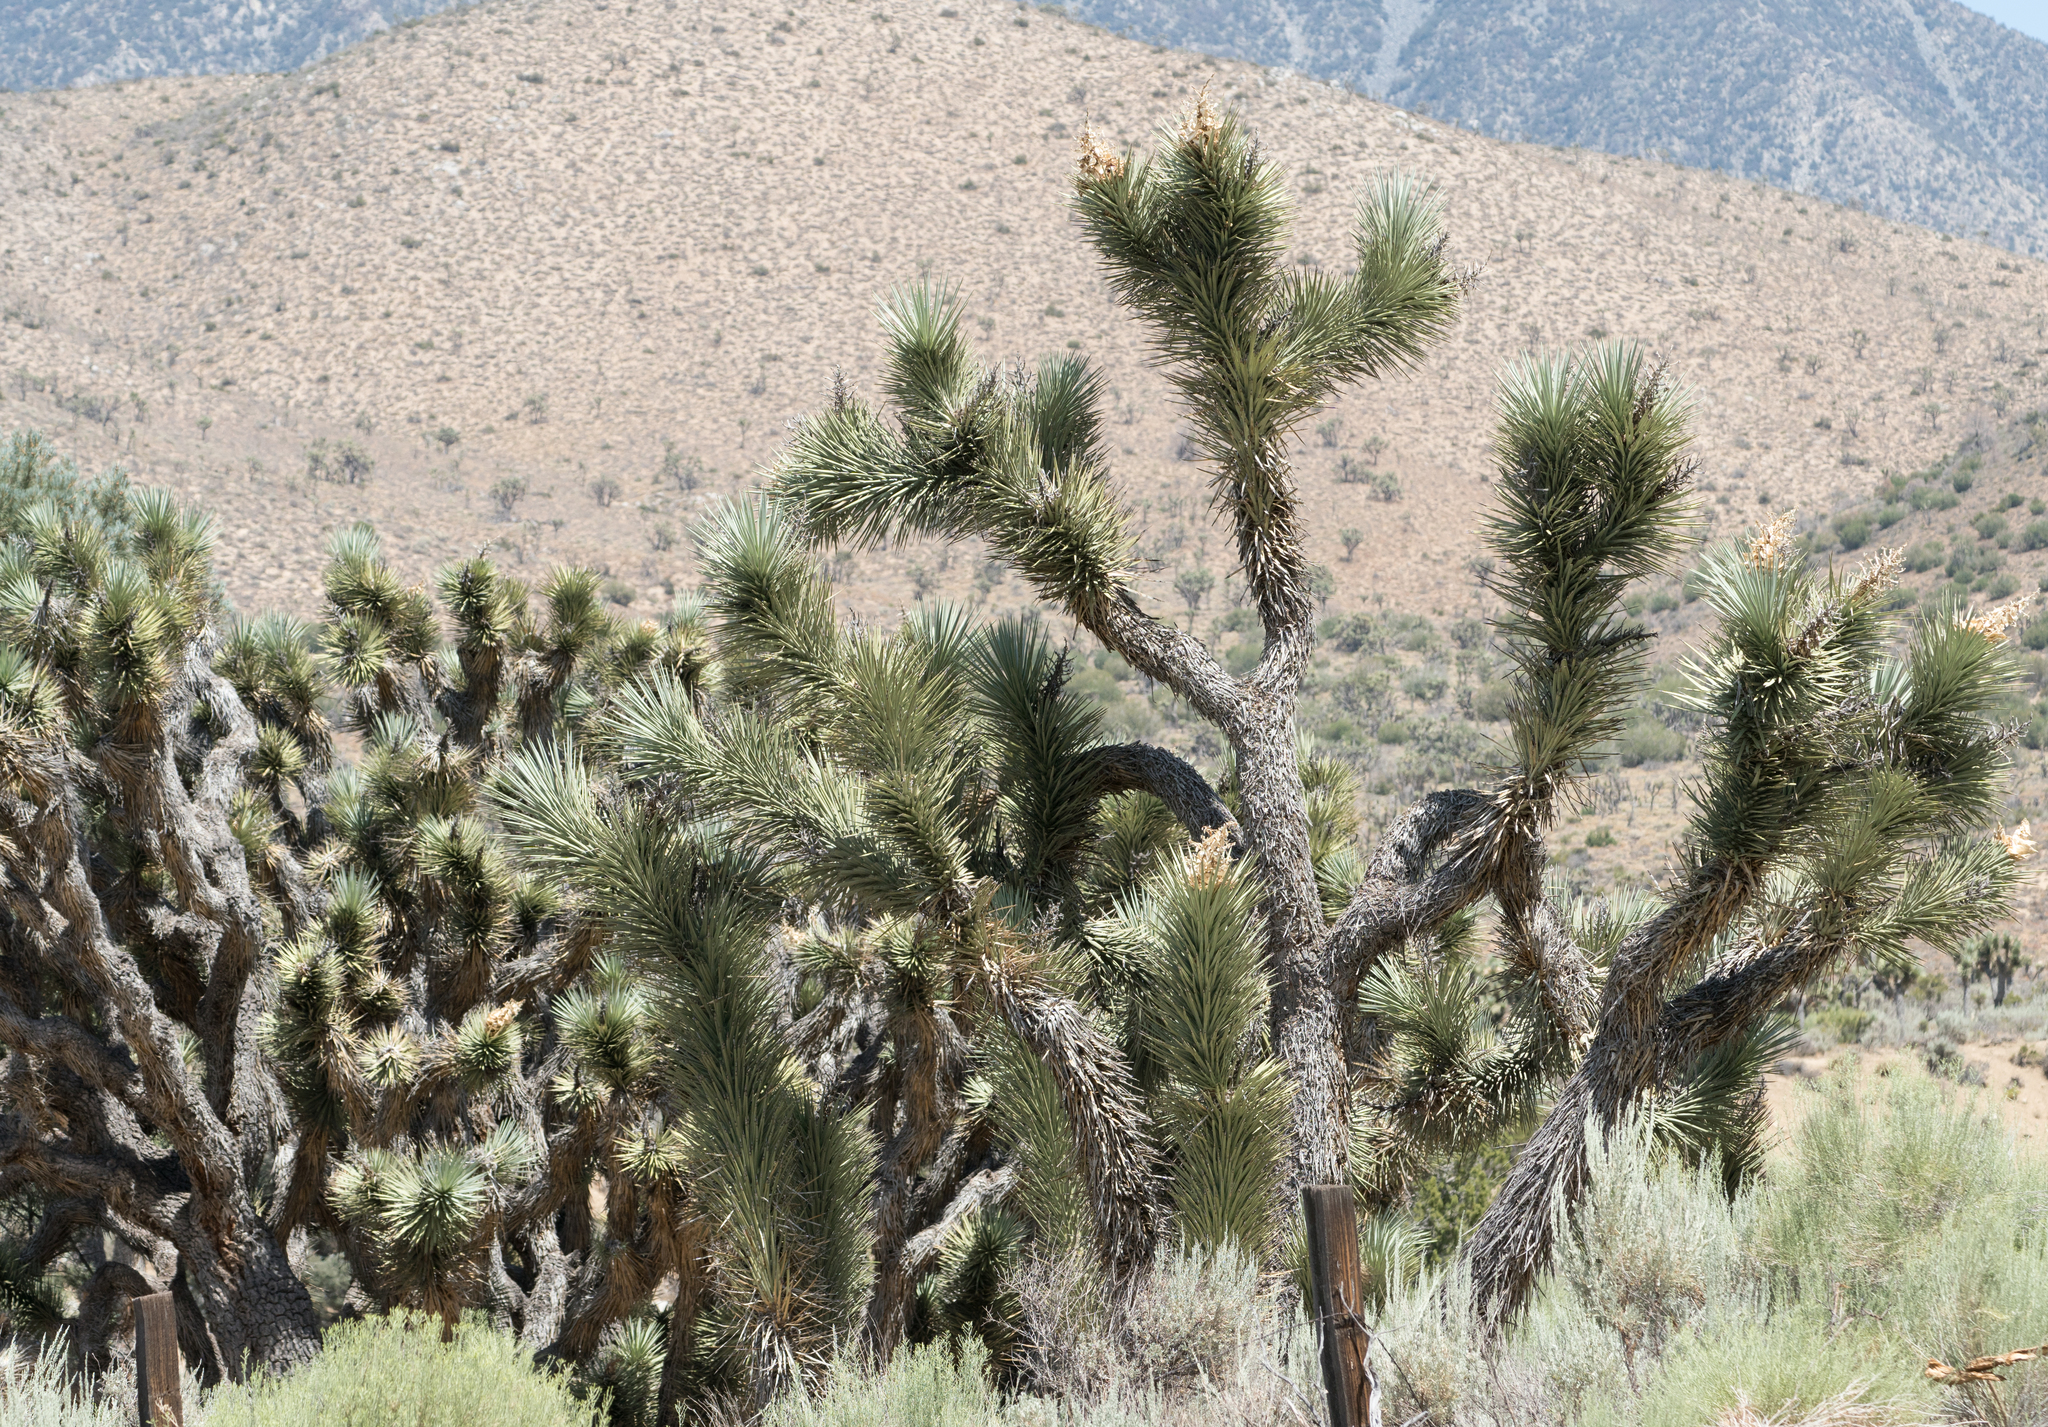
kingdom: Plantae
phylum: Tracheophyta
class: Liliopsida
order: Asparagales
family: Asparagaceae
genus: Yucca
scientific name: Yucca brevifolia
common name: Joshua tree
